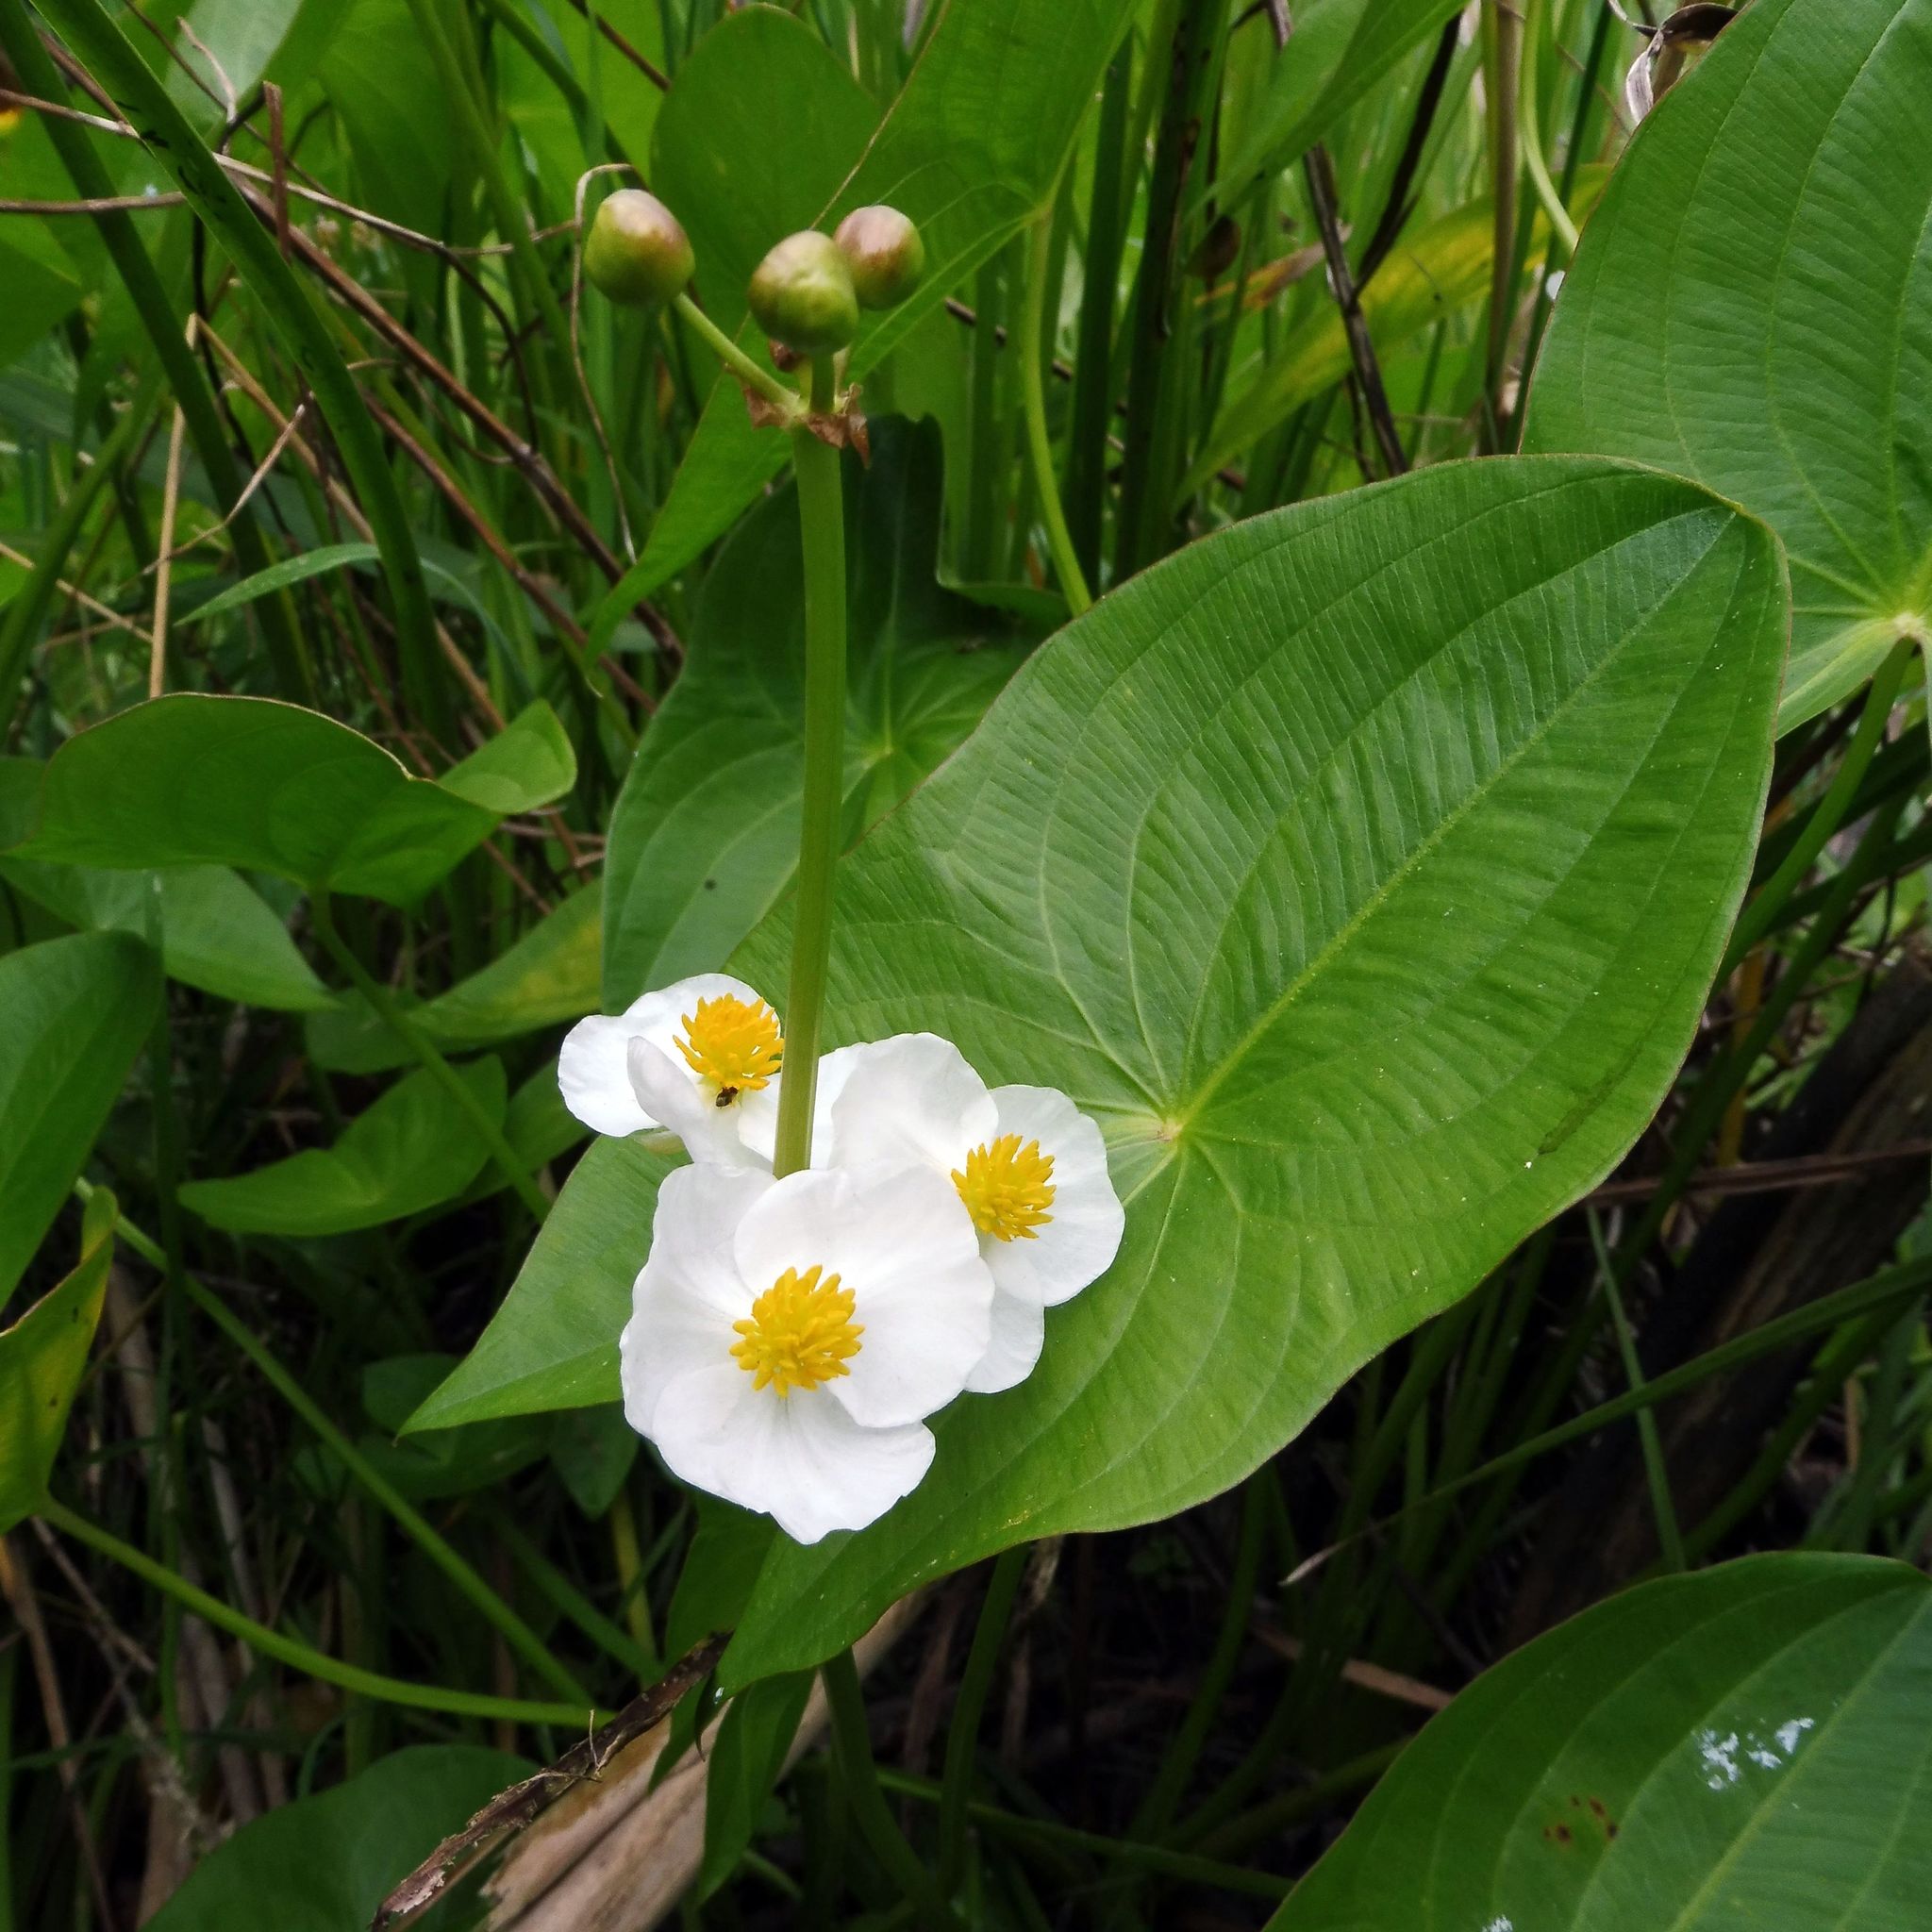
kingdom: Plantae
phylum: Tracheophyta
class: Liliopsida
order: Alismatales
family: Alismataceae
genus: Sagittaria
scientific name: Sagittaria latifolia
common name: Duck-potato
